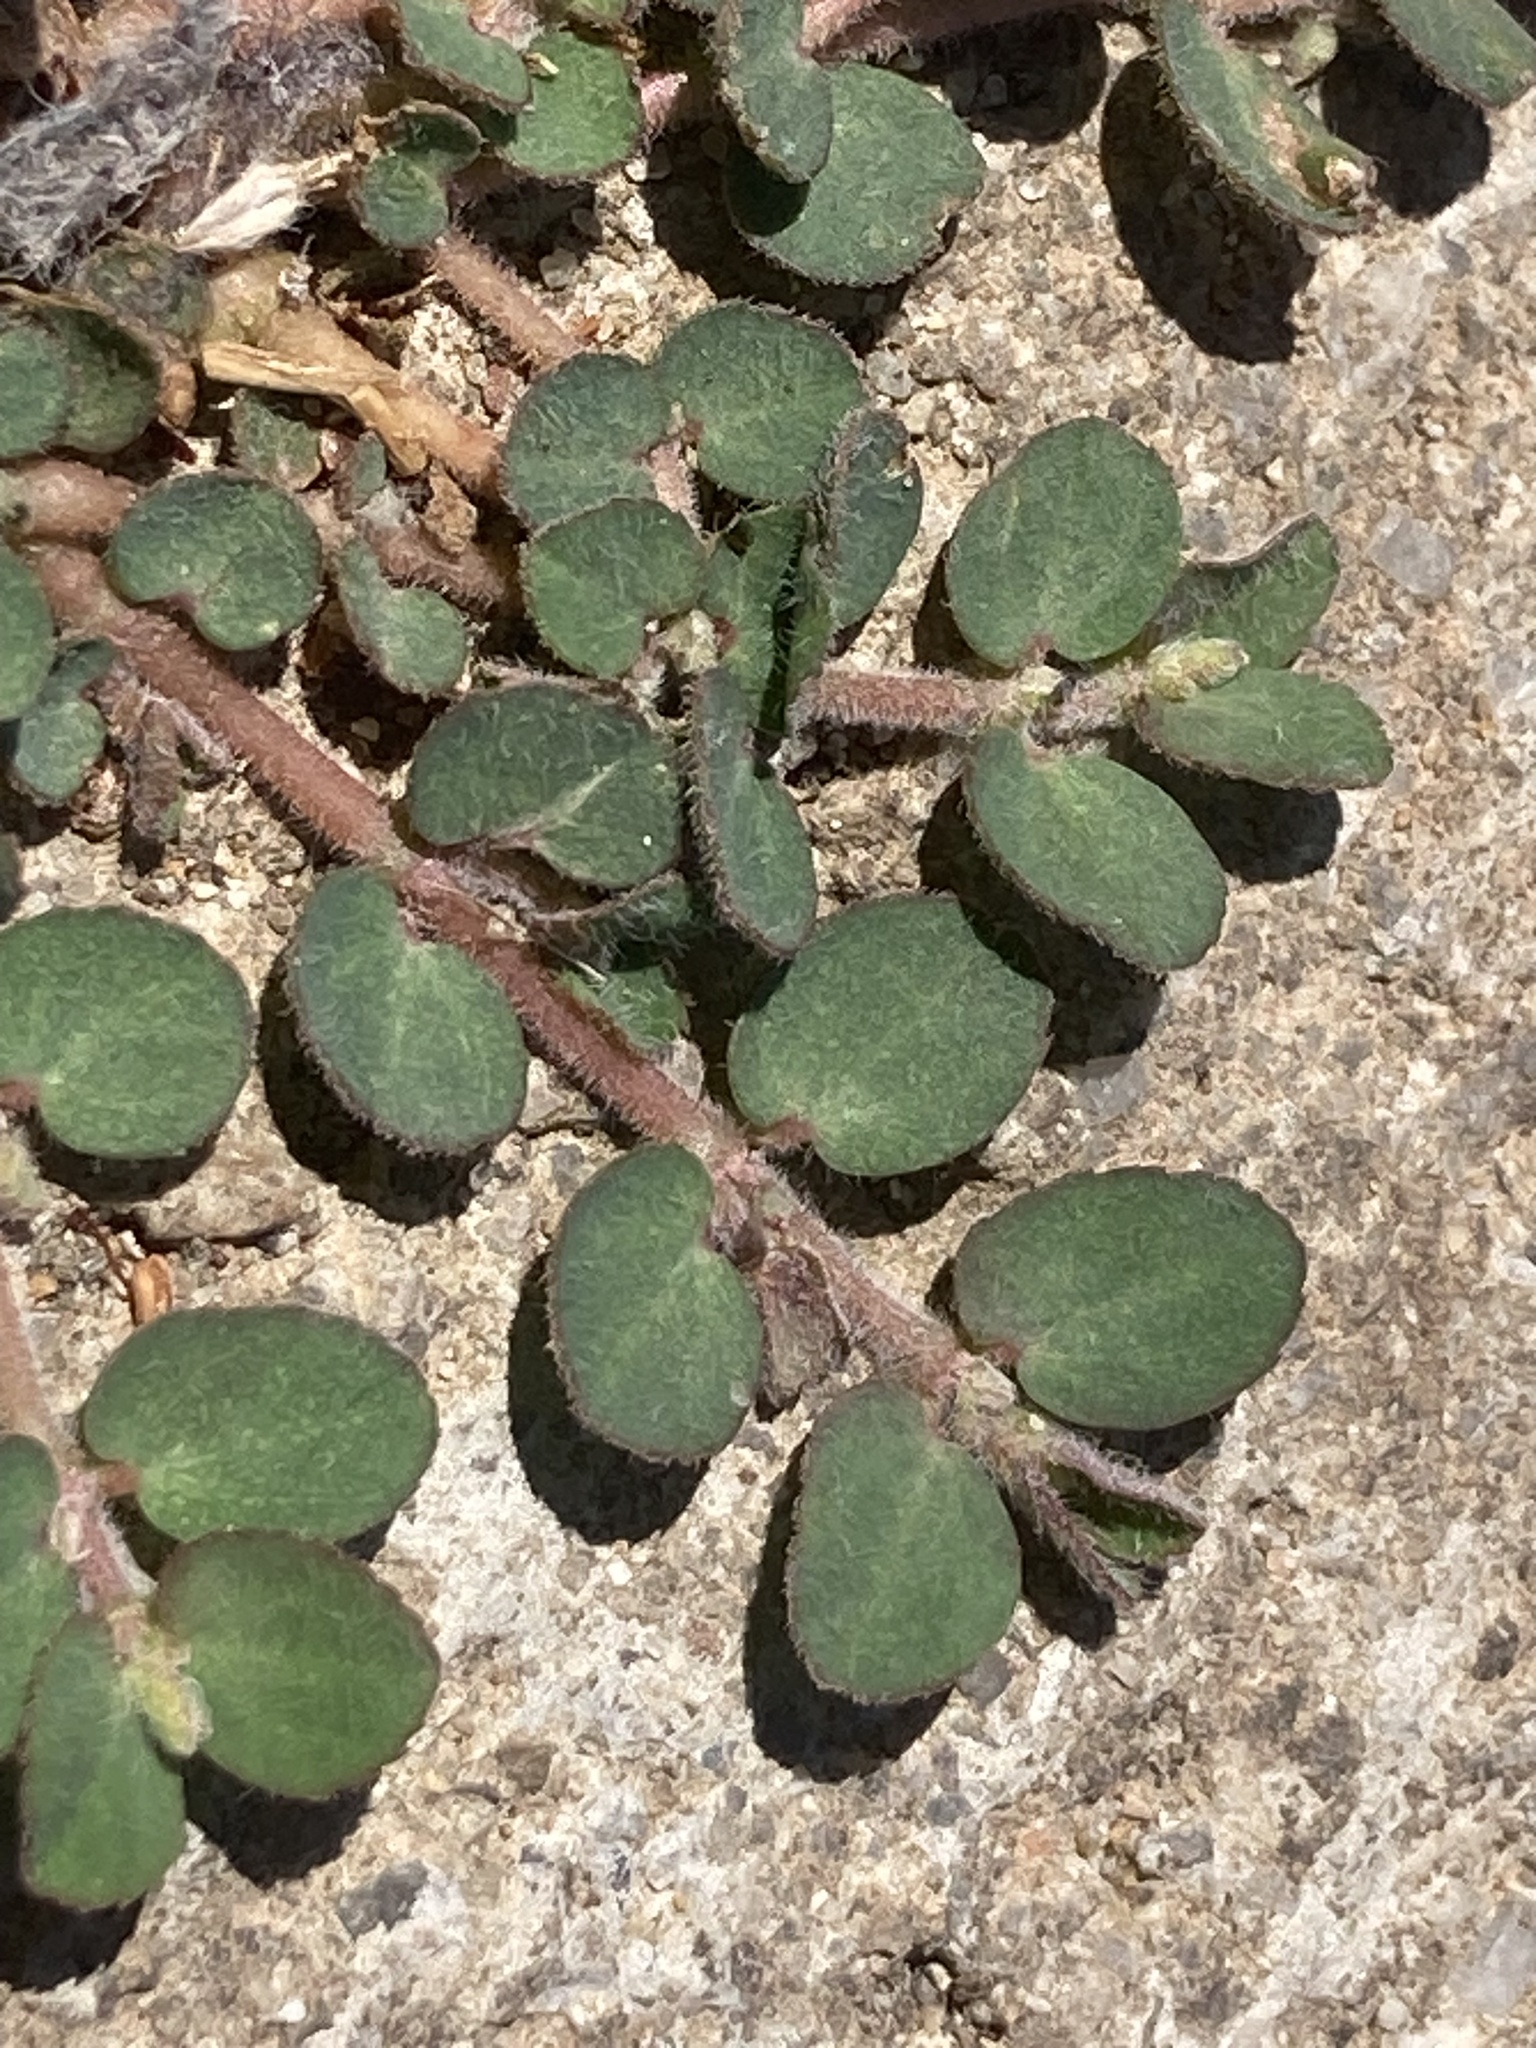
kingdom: Plantae
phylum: Tracheophyta
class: Magnoliopsida
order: Malpighiales
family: Euphorbiaceae
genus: Euphorbia
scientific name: Euphorbia prostrata
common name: Prostrate sandmat
